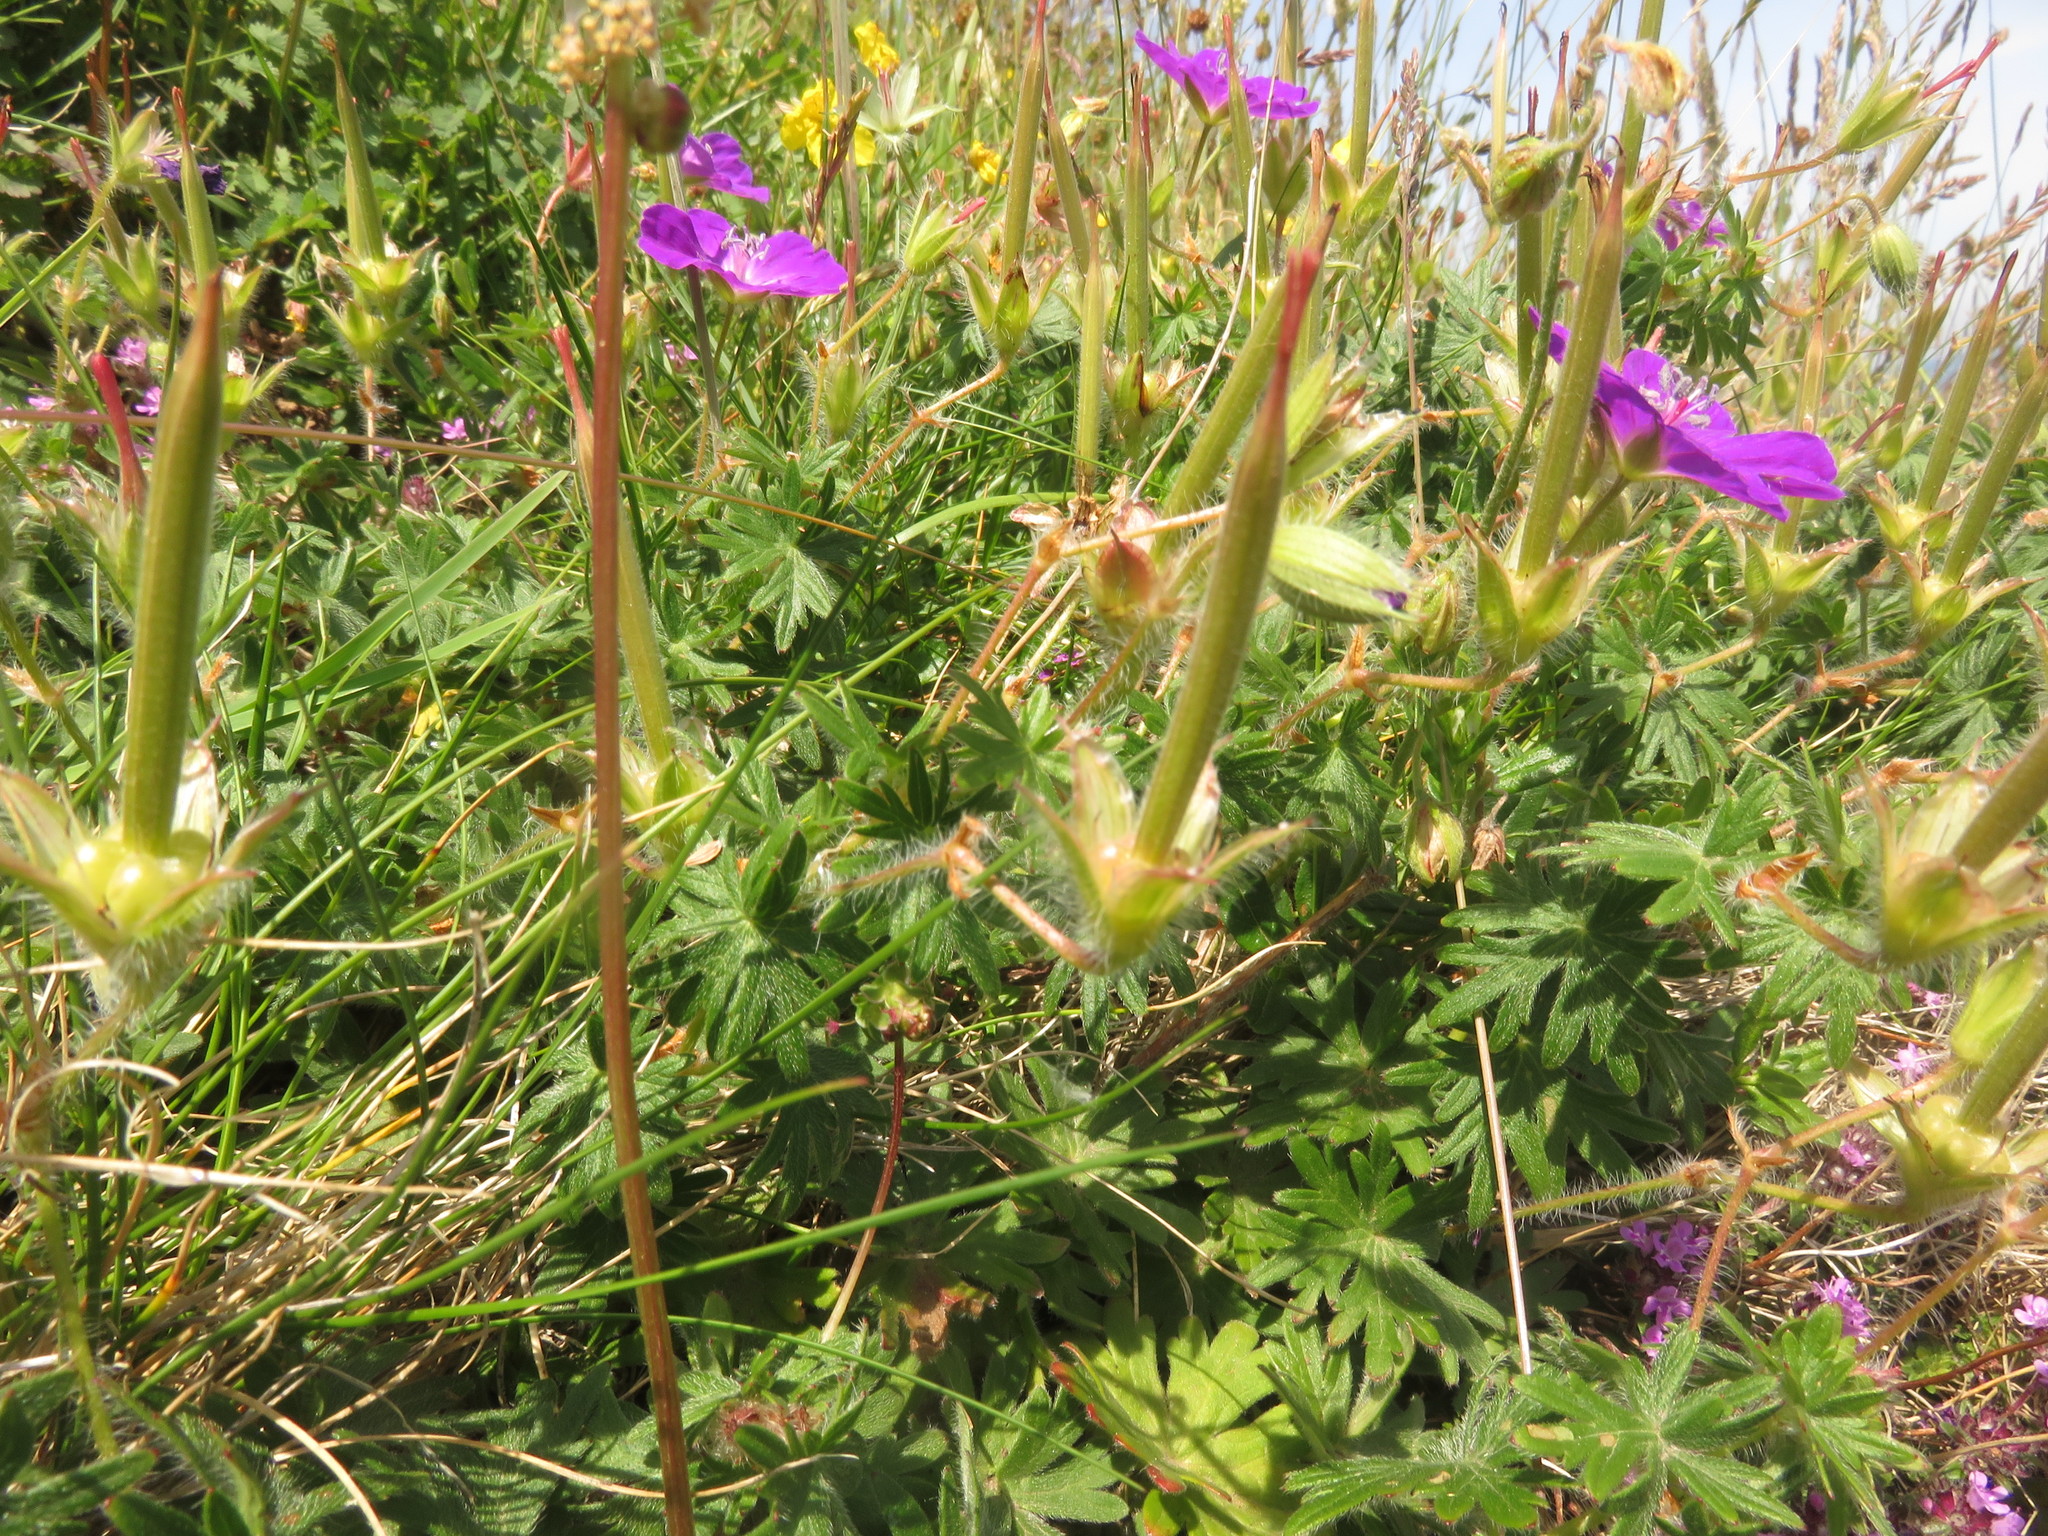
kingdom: Plantae
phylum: Tracheophyta
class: Magnoliopsida
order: Geraniales
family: Geraniaceae
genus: Geranium
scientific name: Geranium sanguineum
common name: Bloody crane's-bill
